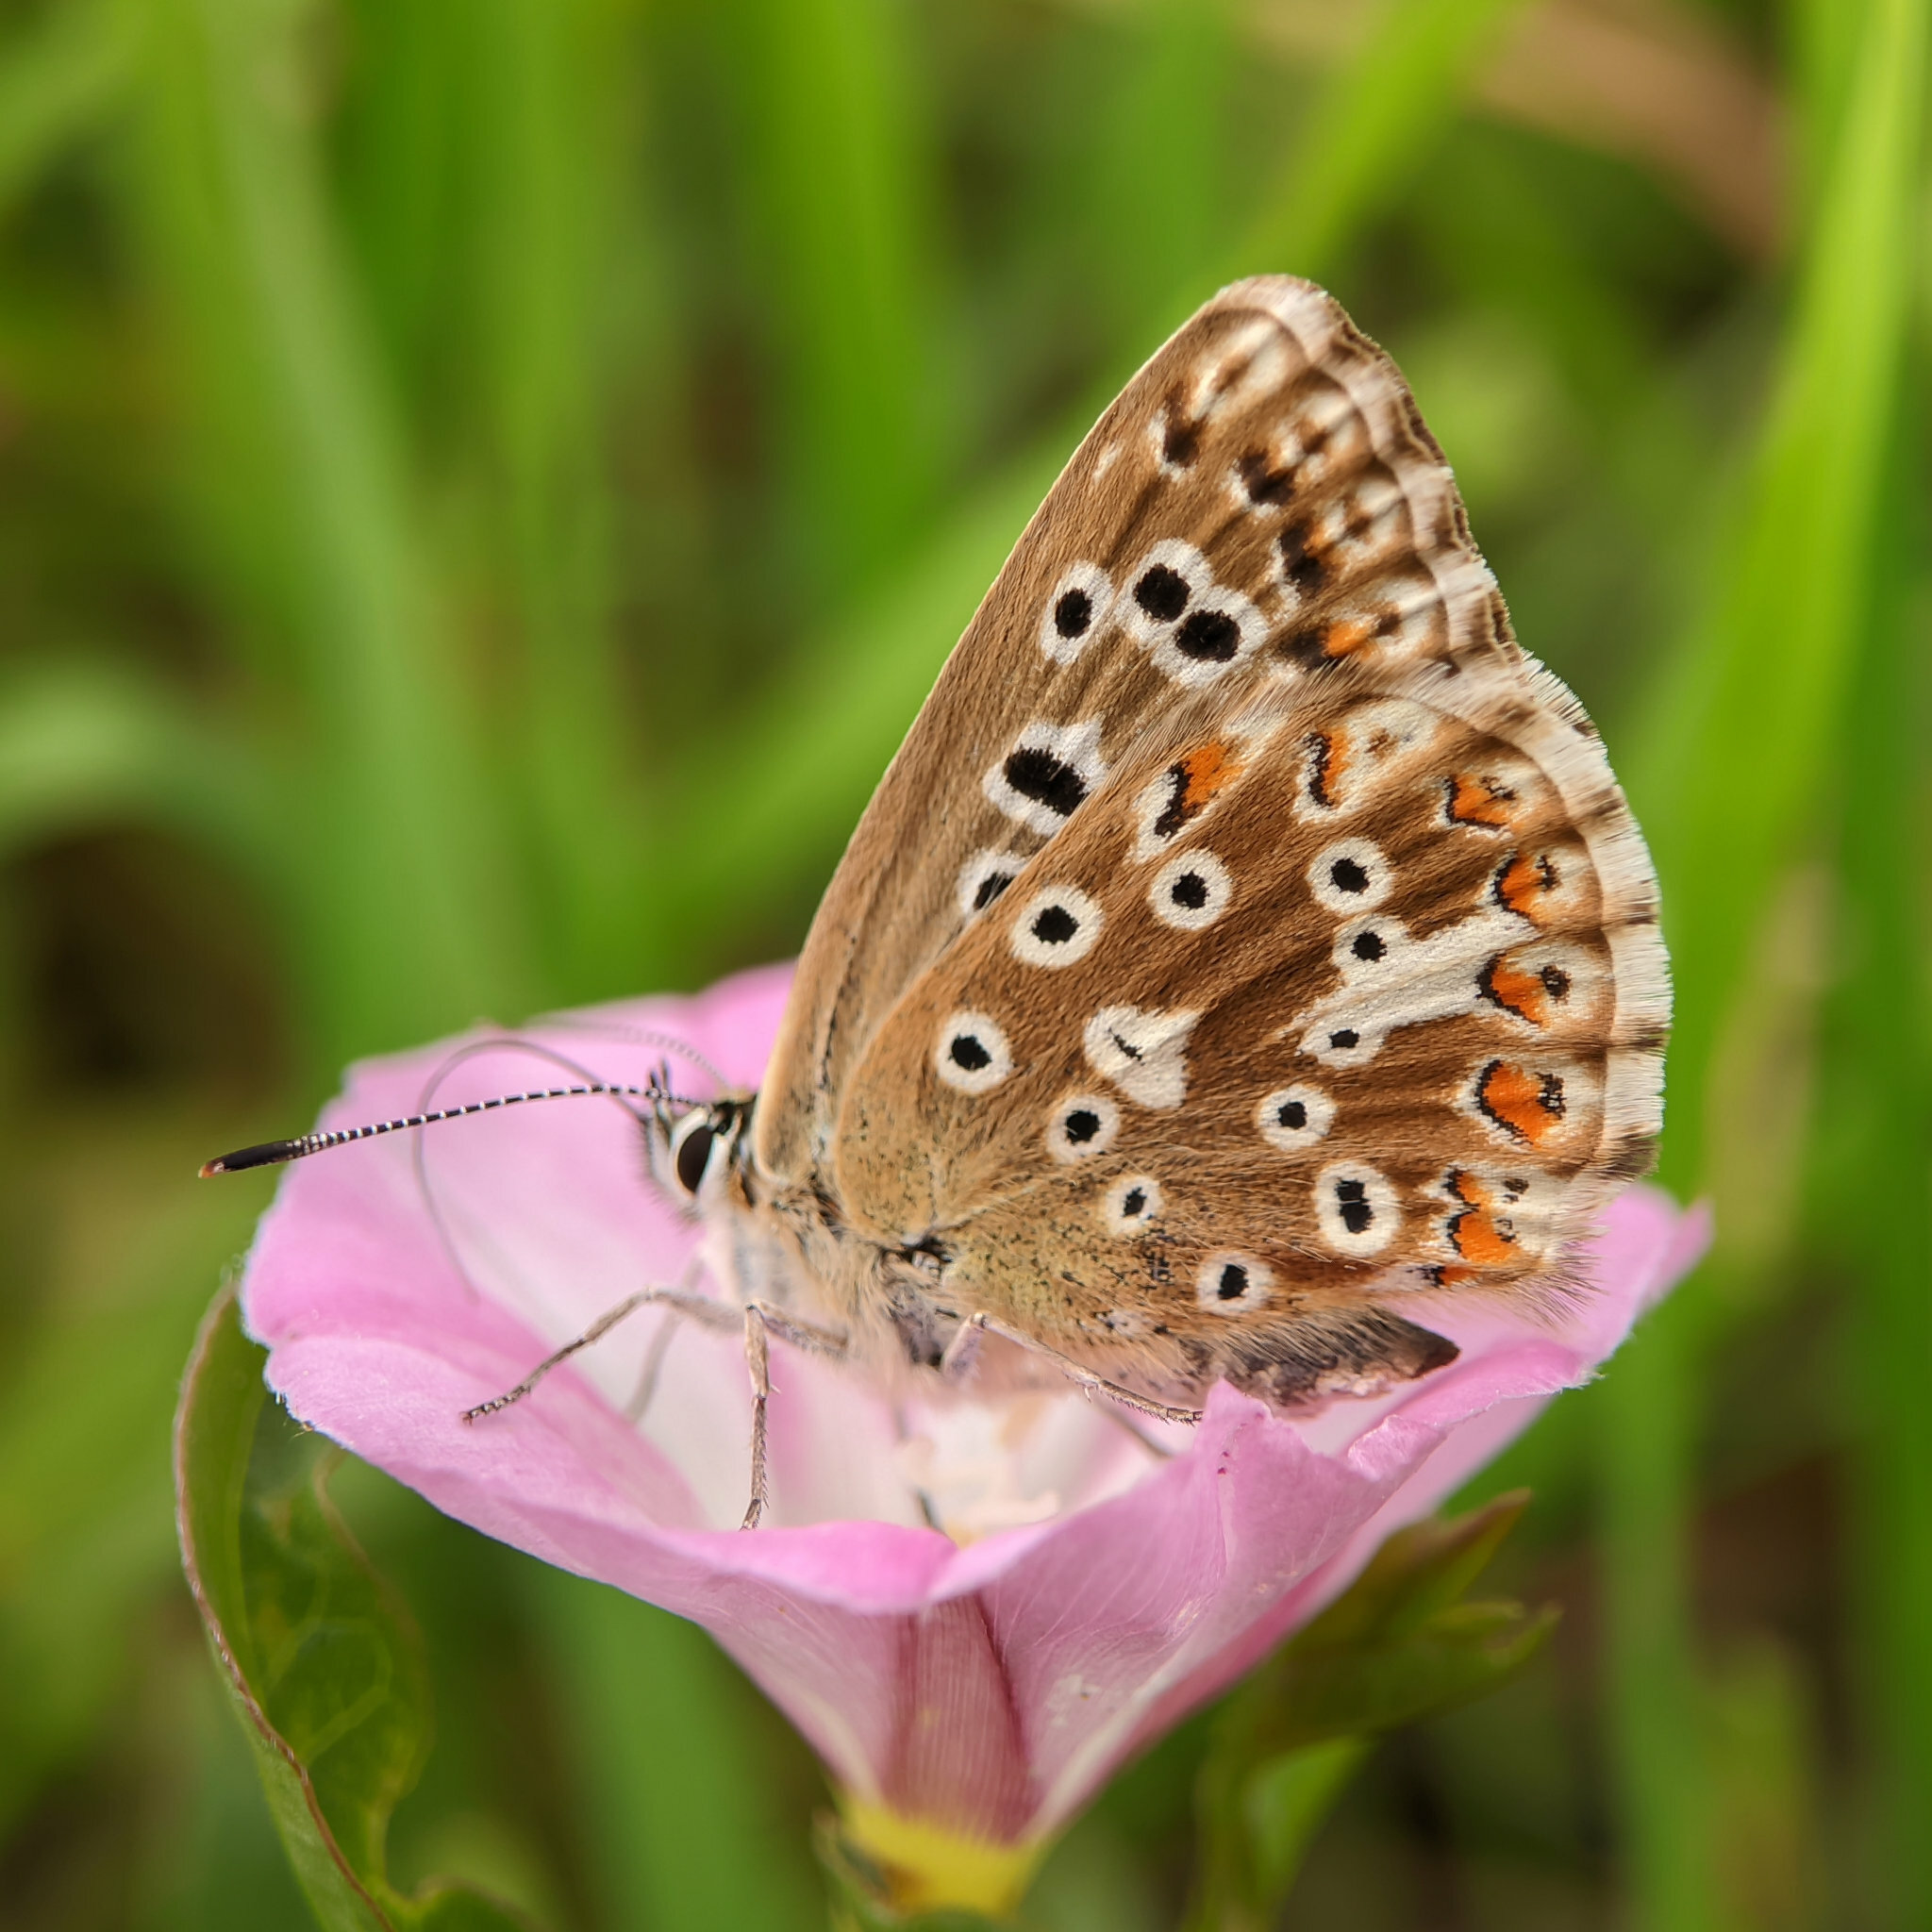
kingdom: Animalia
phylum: Arthropoda
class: Insecta
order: Lepidoptera
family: Lycaenidae
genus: Lysandra
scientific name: Lysandra coridon
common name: Chalkhill blue
